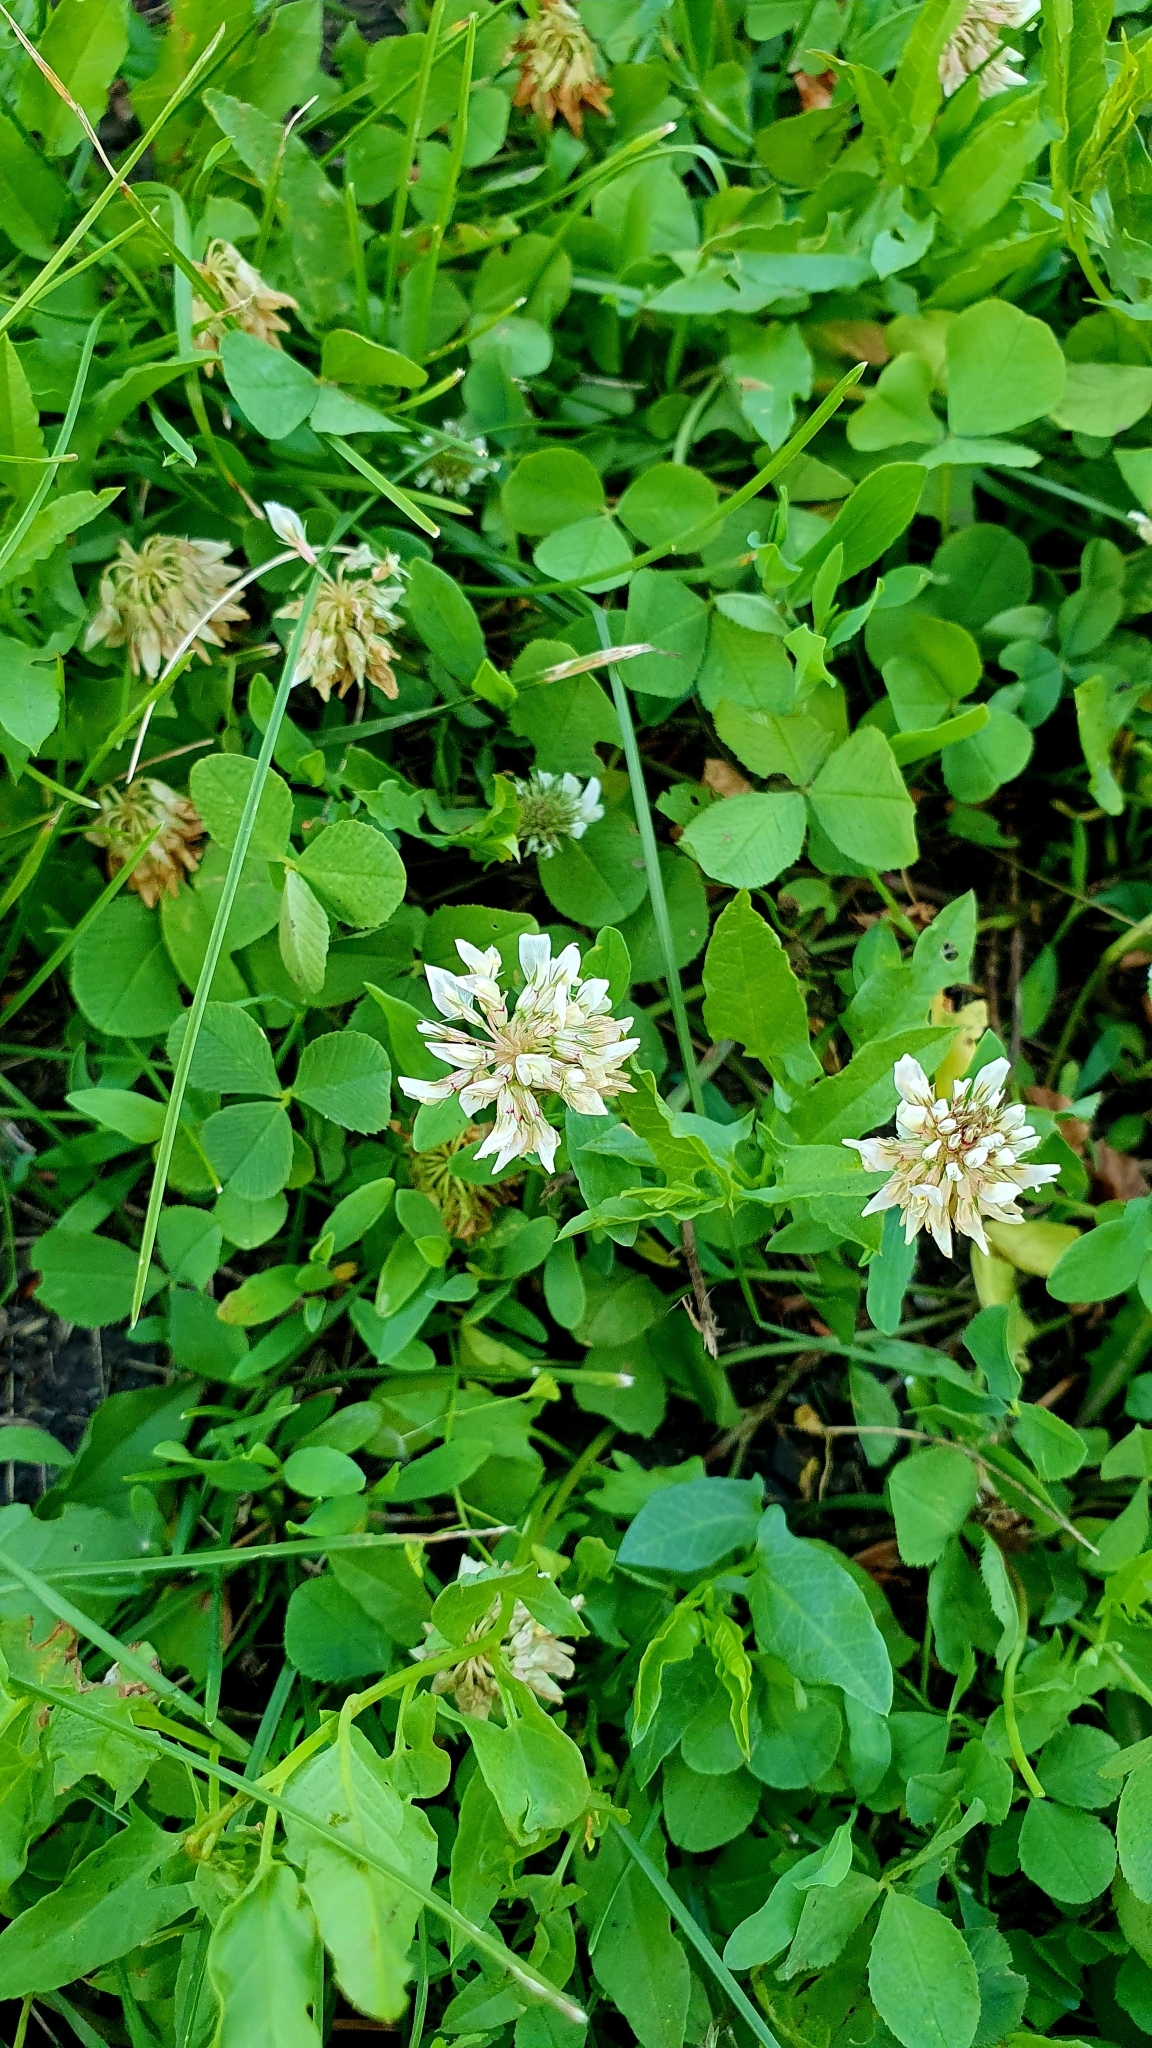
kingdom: Plantae
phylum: Tracheophyta
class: Magnoliopsida
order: Fabales
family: Fabaceae
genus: Trifolium
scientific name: Trifolium repens
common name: White clover
